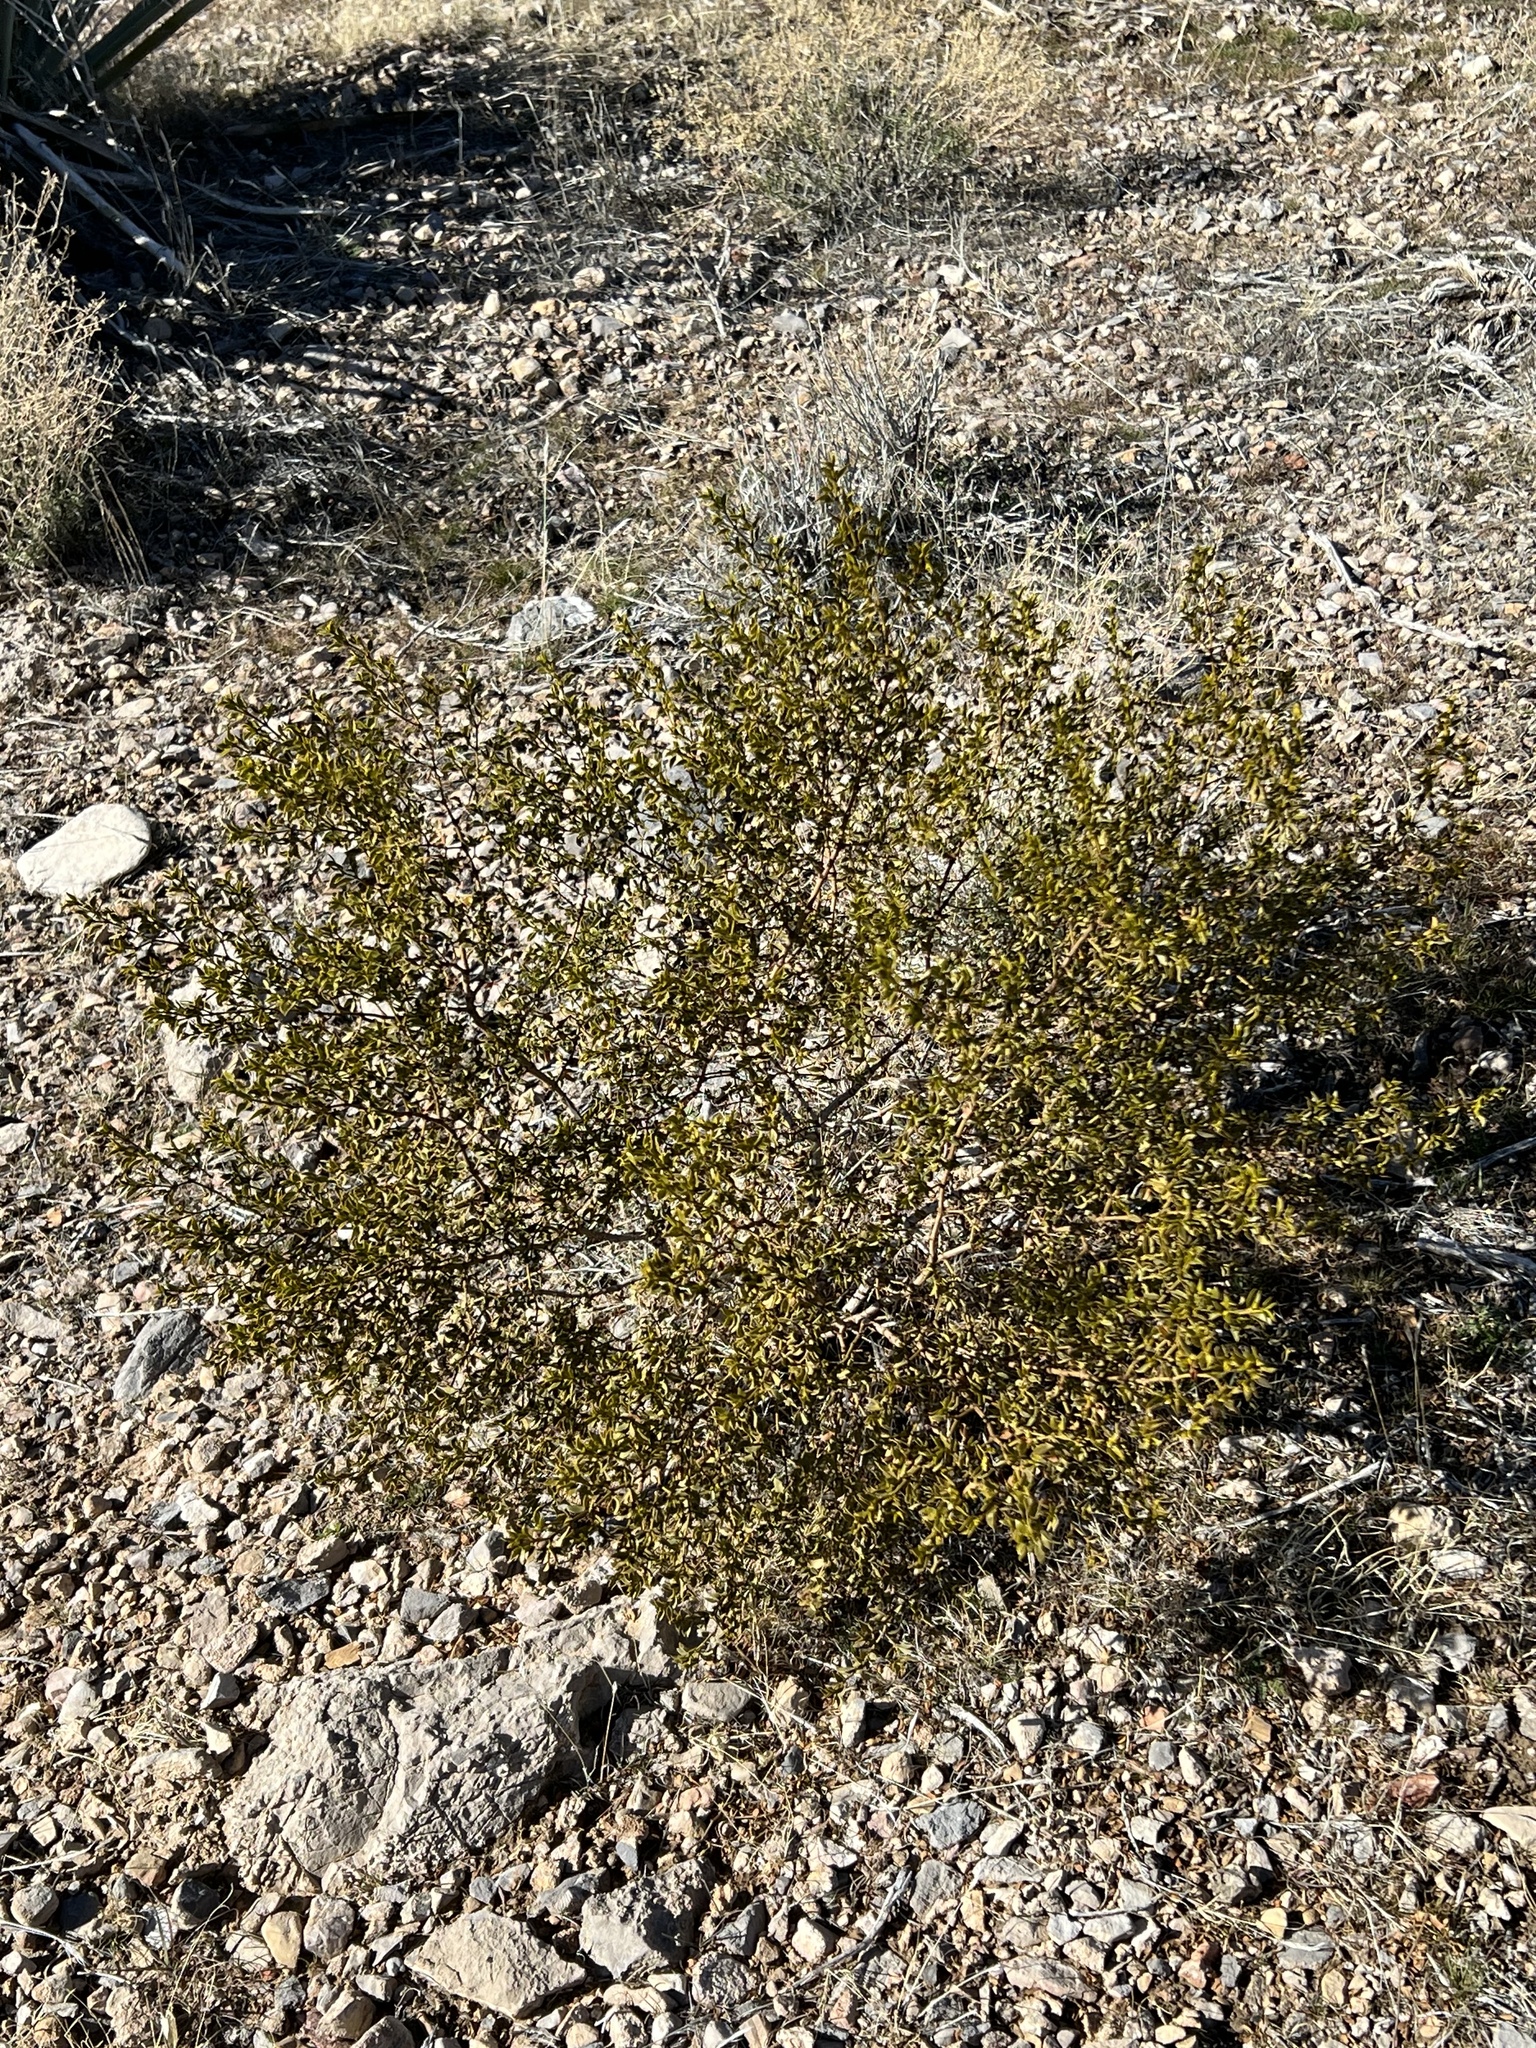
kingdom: Plantae
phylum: Tracheophyta
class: Magnoliopsida
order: Zygophyllales
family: Zygophyllaceae
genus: Larrea
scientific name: Larrea tridentata
